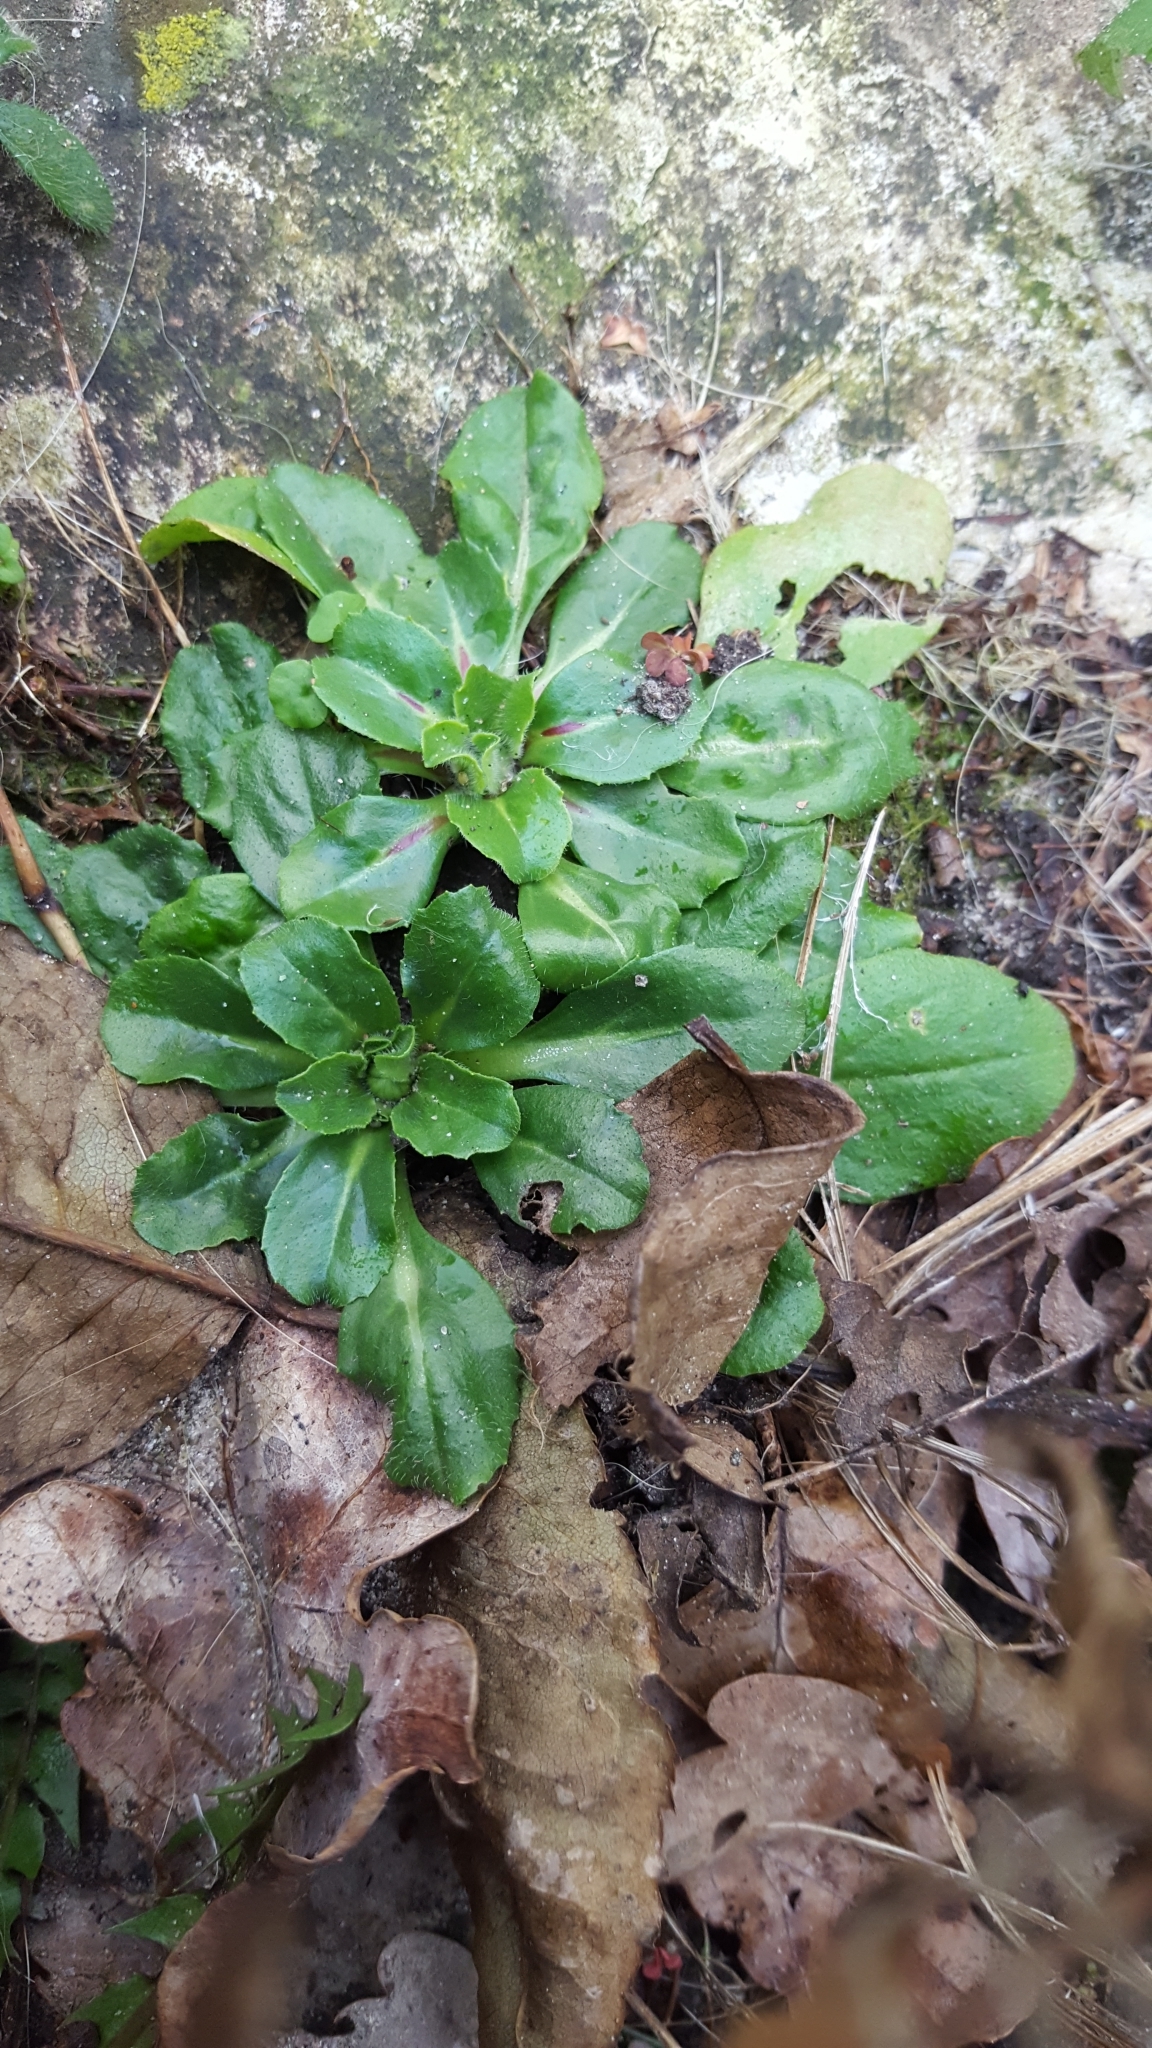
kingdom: Plantae
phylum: Tracheophyta
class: Magnoliopsida
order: Asterales
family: Asteraceae
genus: Bellis
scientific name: Bellis perennis
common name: Lawndaisy
